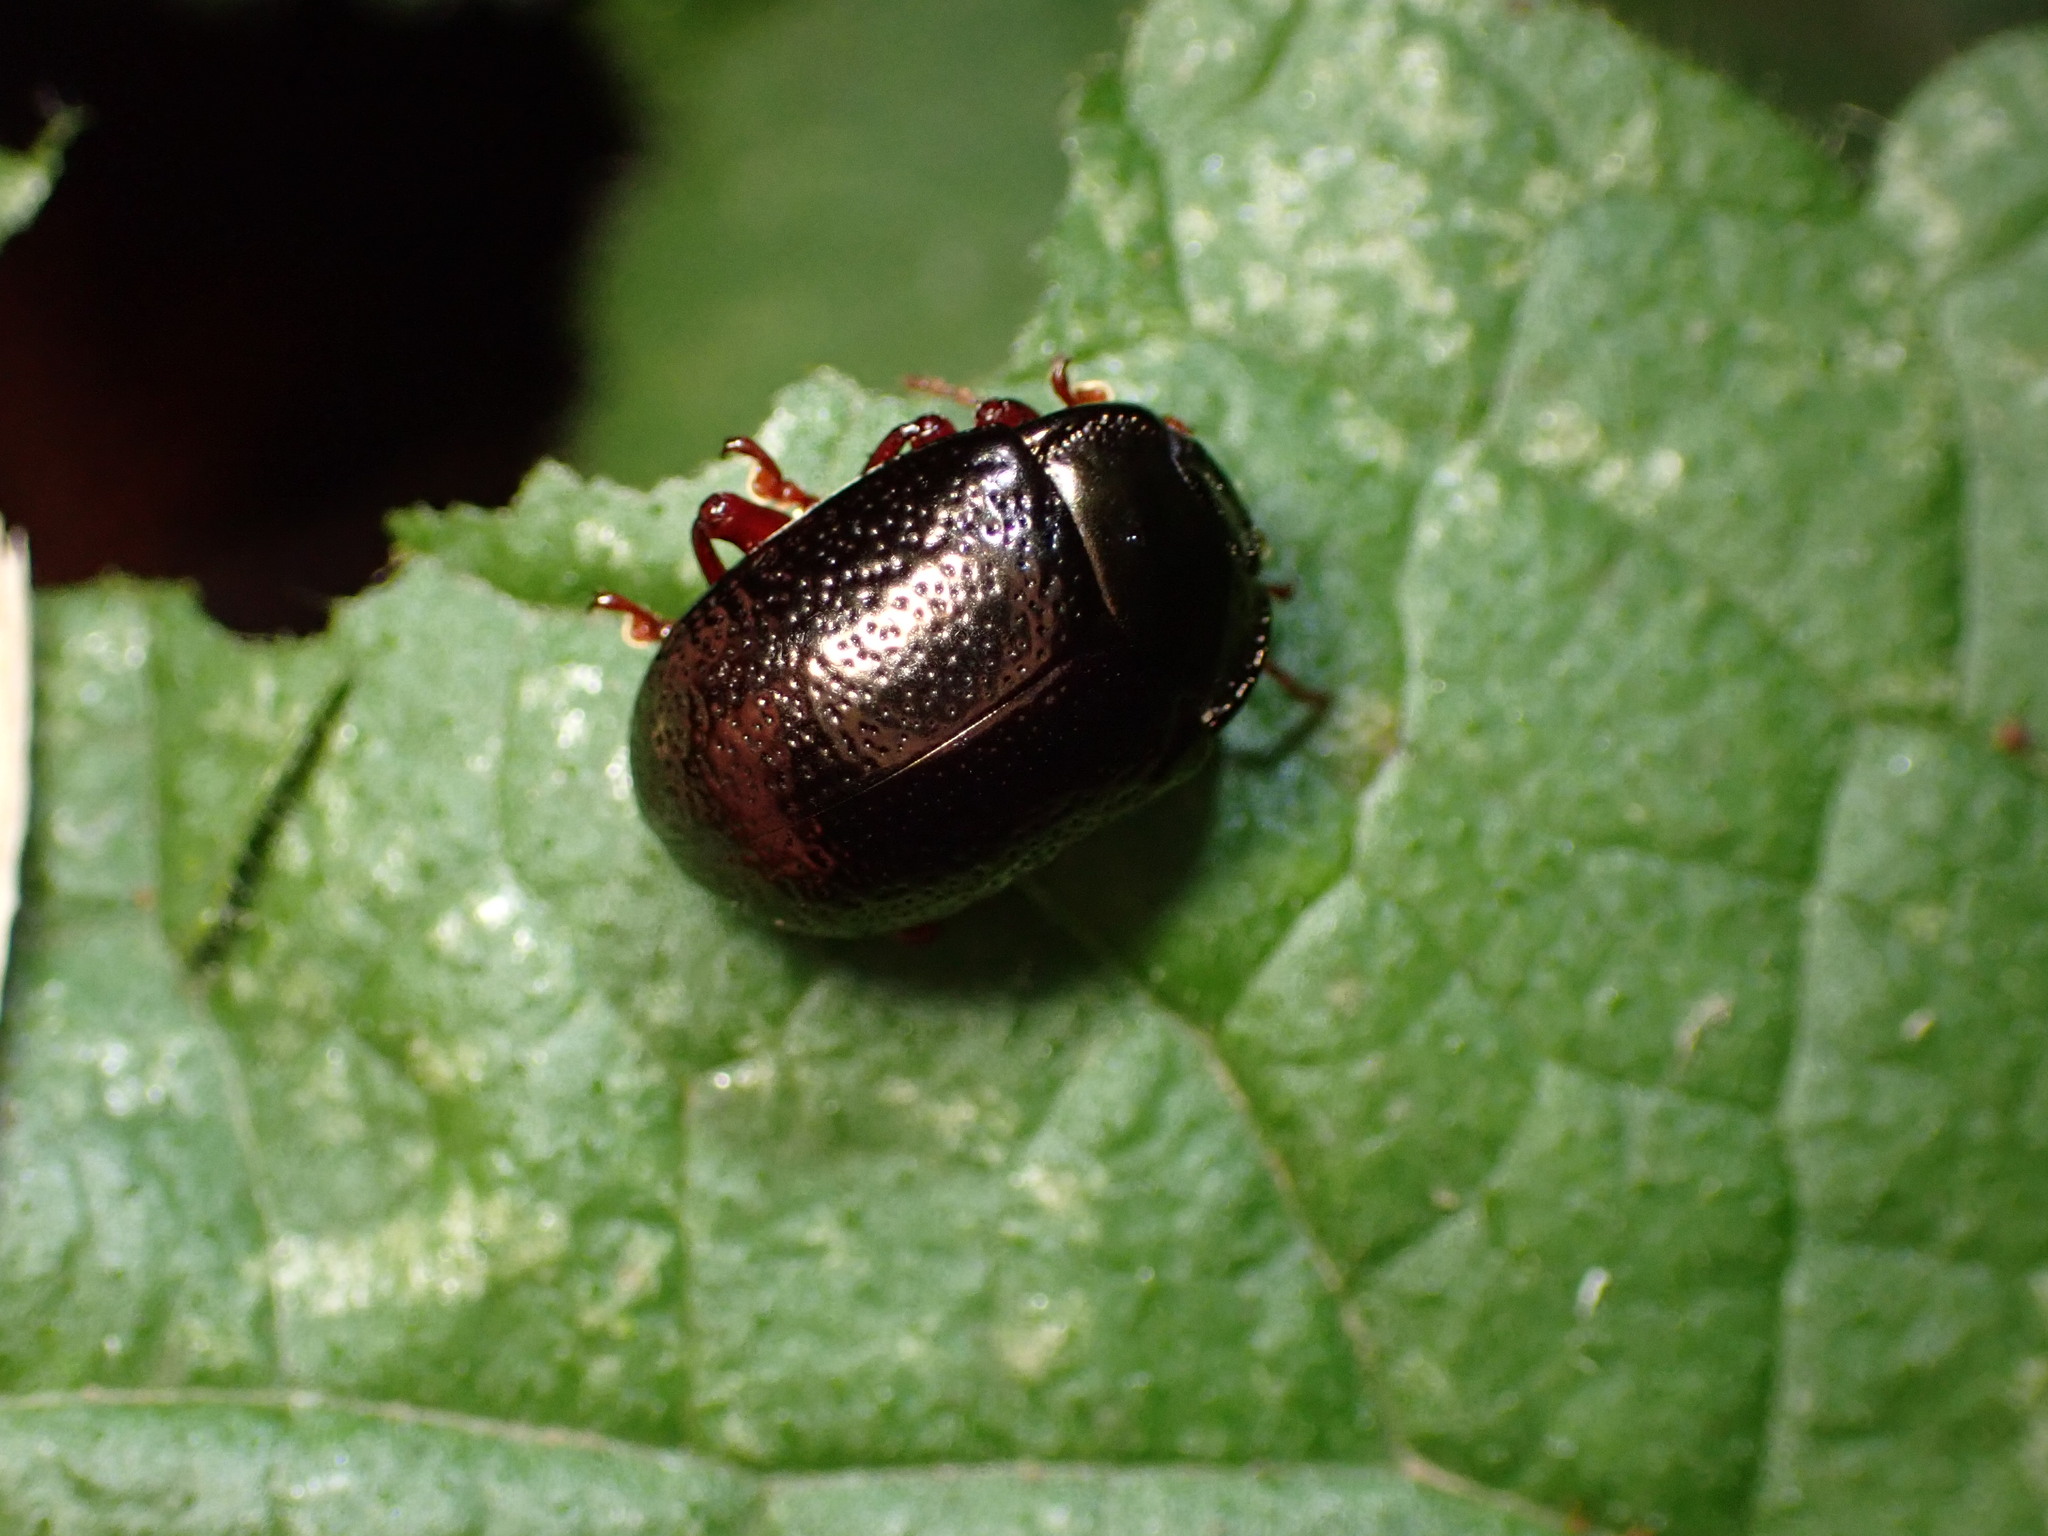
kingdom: Animalia
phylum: Arthropoda
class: Insecta
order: Coleoptera
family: Chrysomelidae
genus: Chrysolina
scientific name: Chrysolina bankii
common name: Leaf beetle
